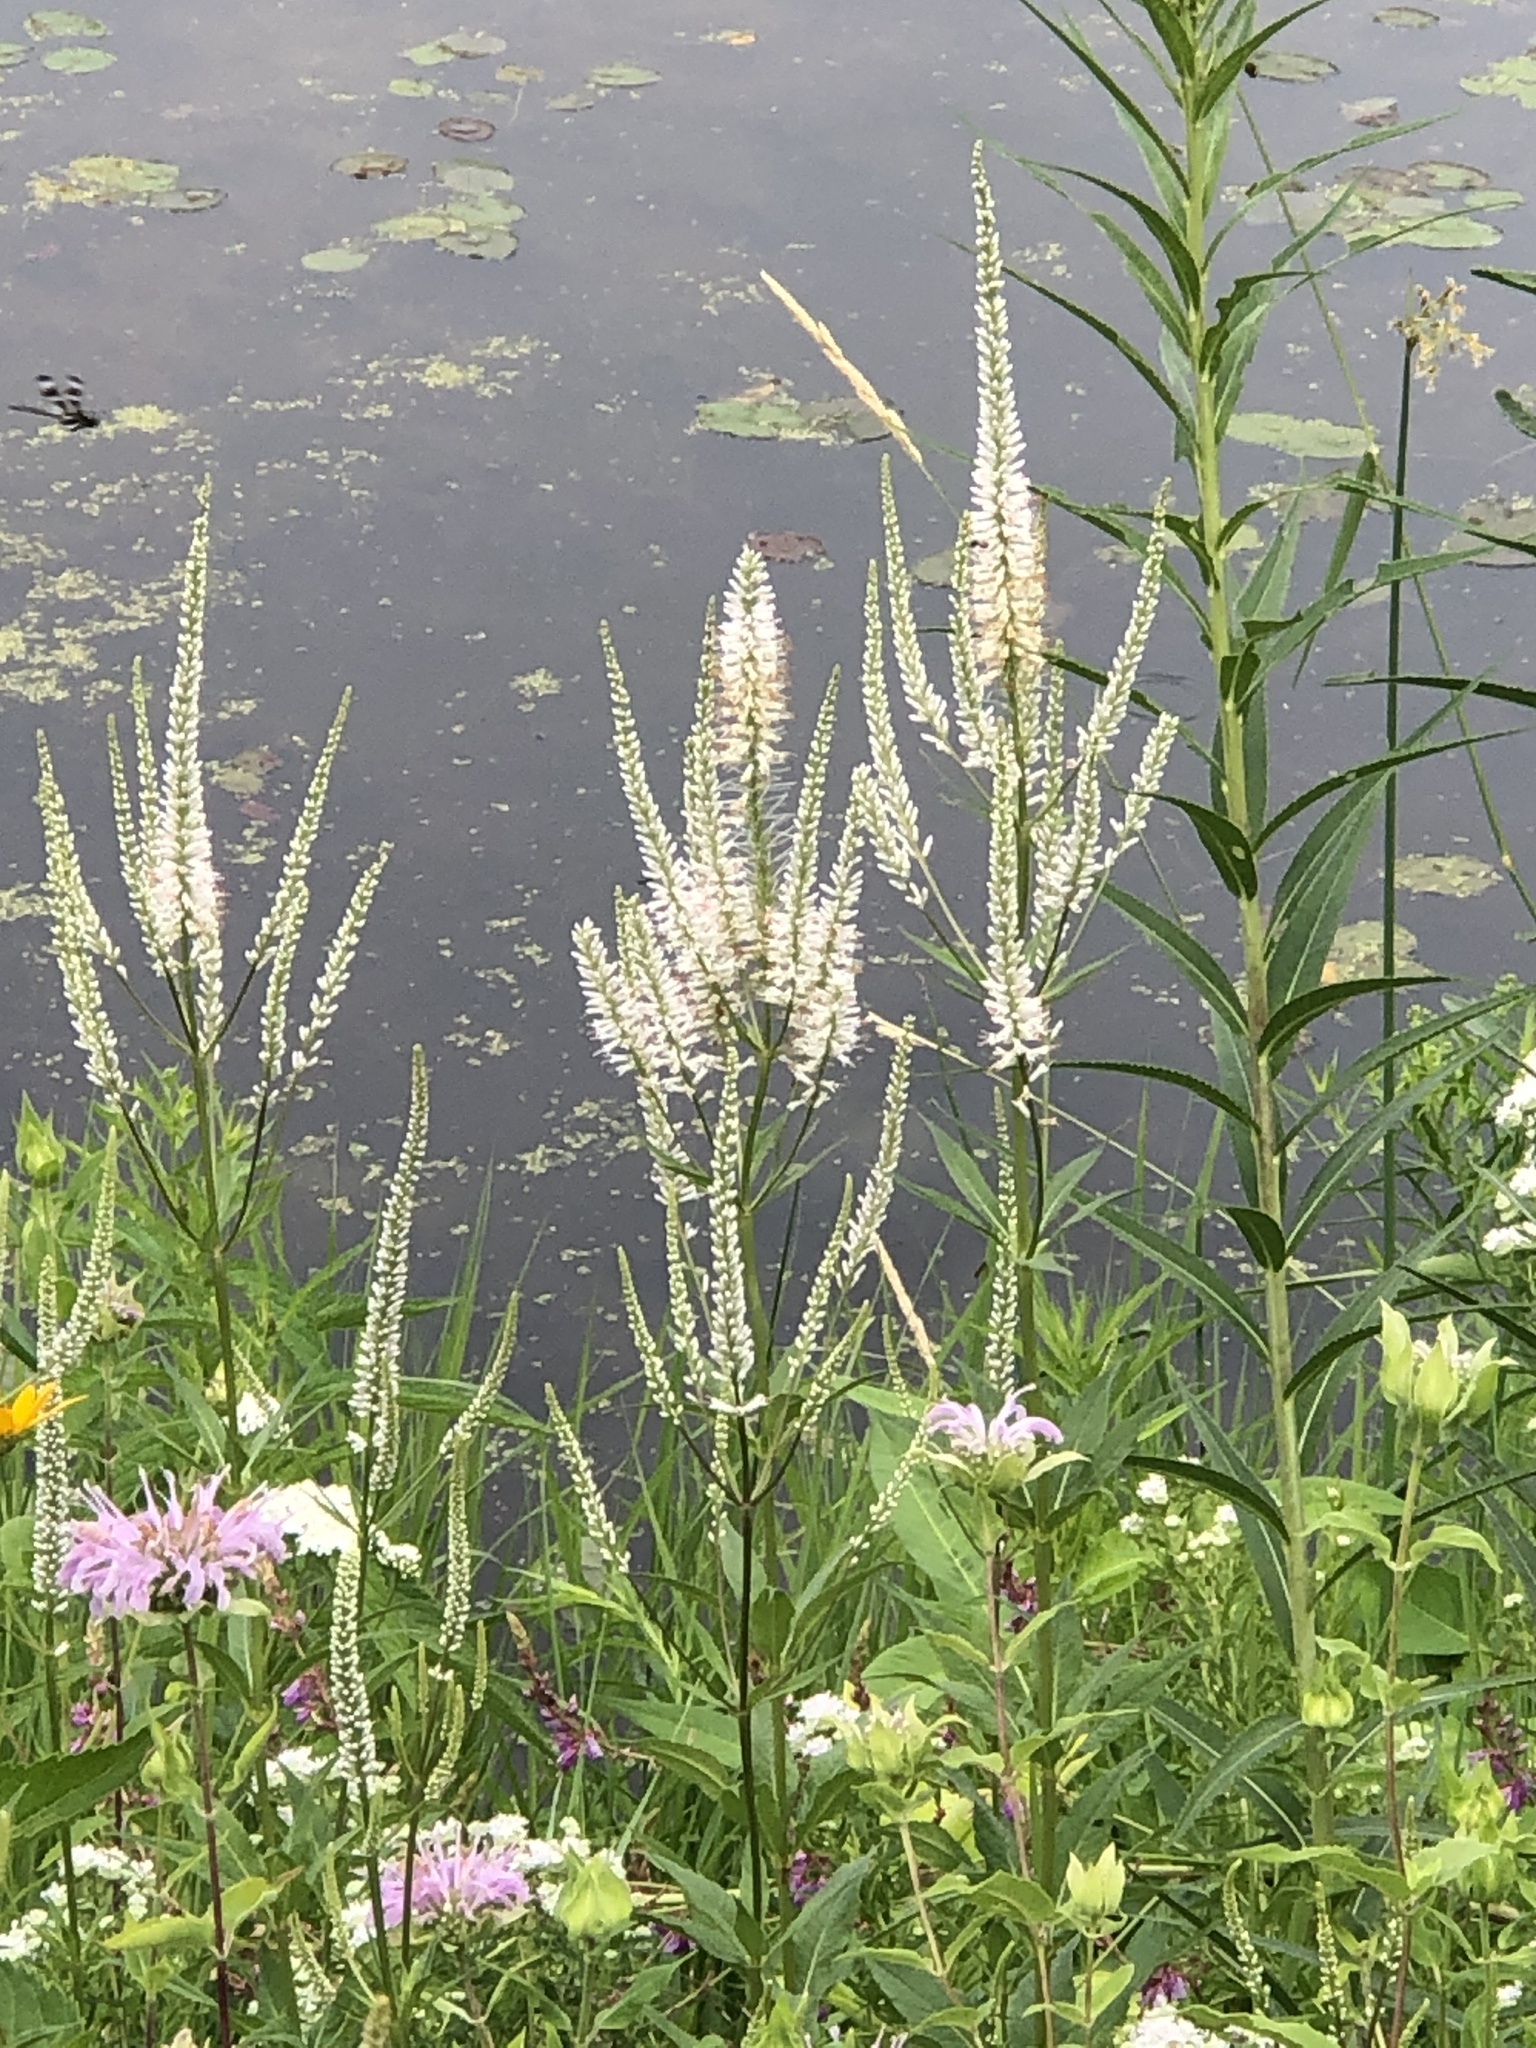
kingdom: Plantae
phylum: Tracheophyta
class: Magnoliopsida
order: Lamiales
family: Plantaginaceae
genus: Veronicastrum
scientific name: Veronicastrum virginicum
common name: Blackroot
